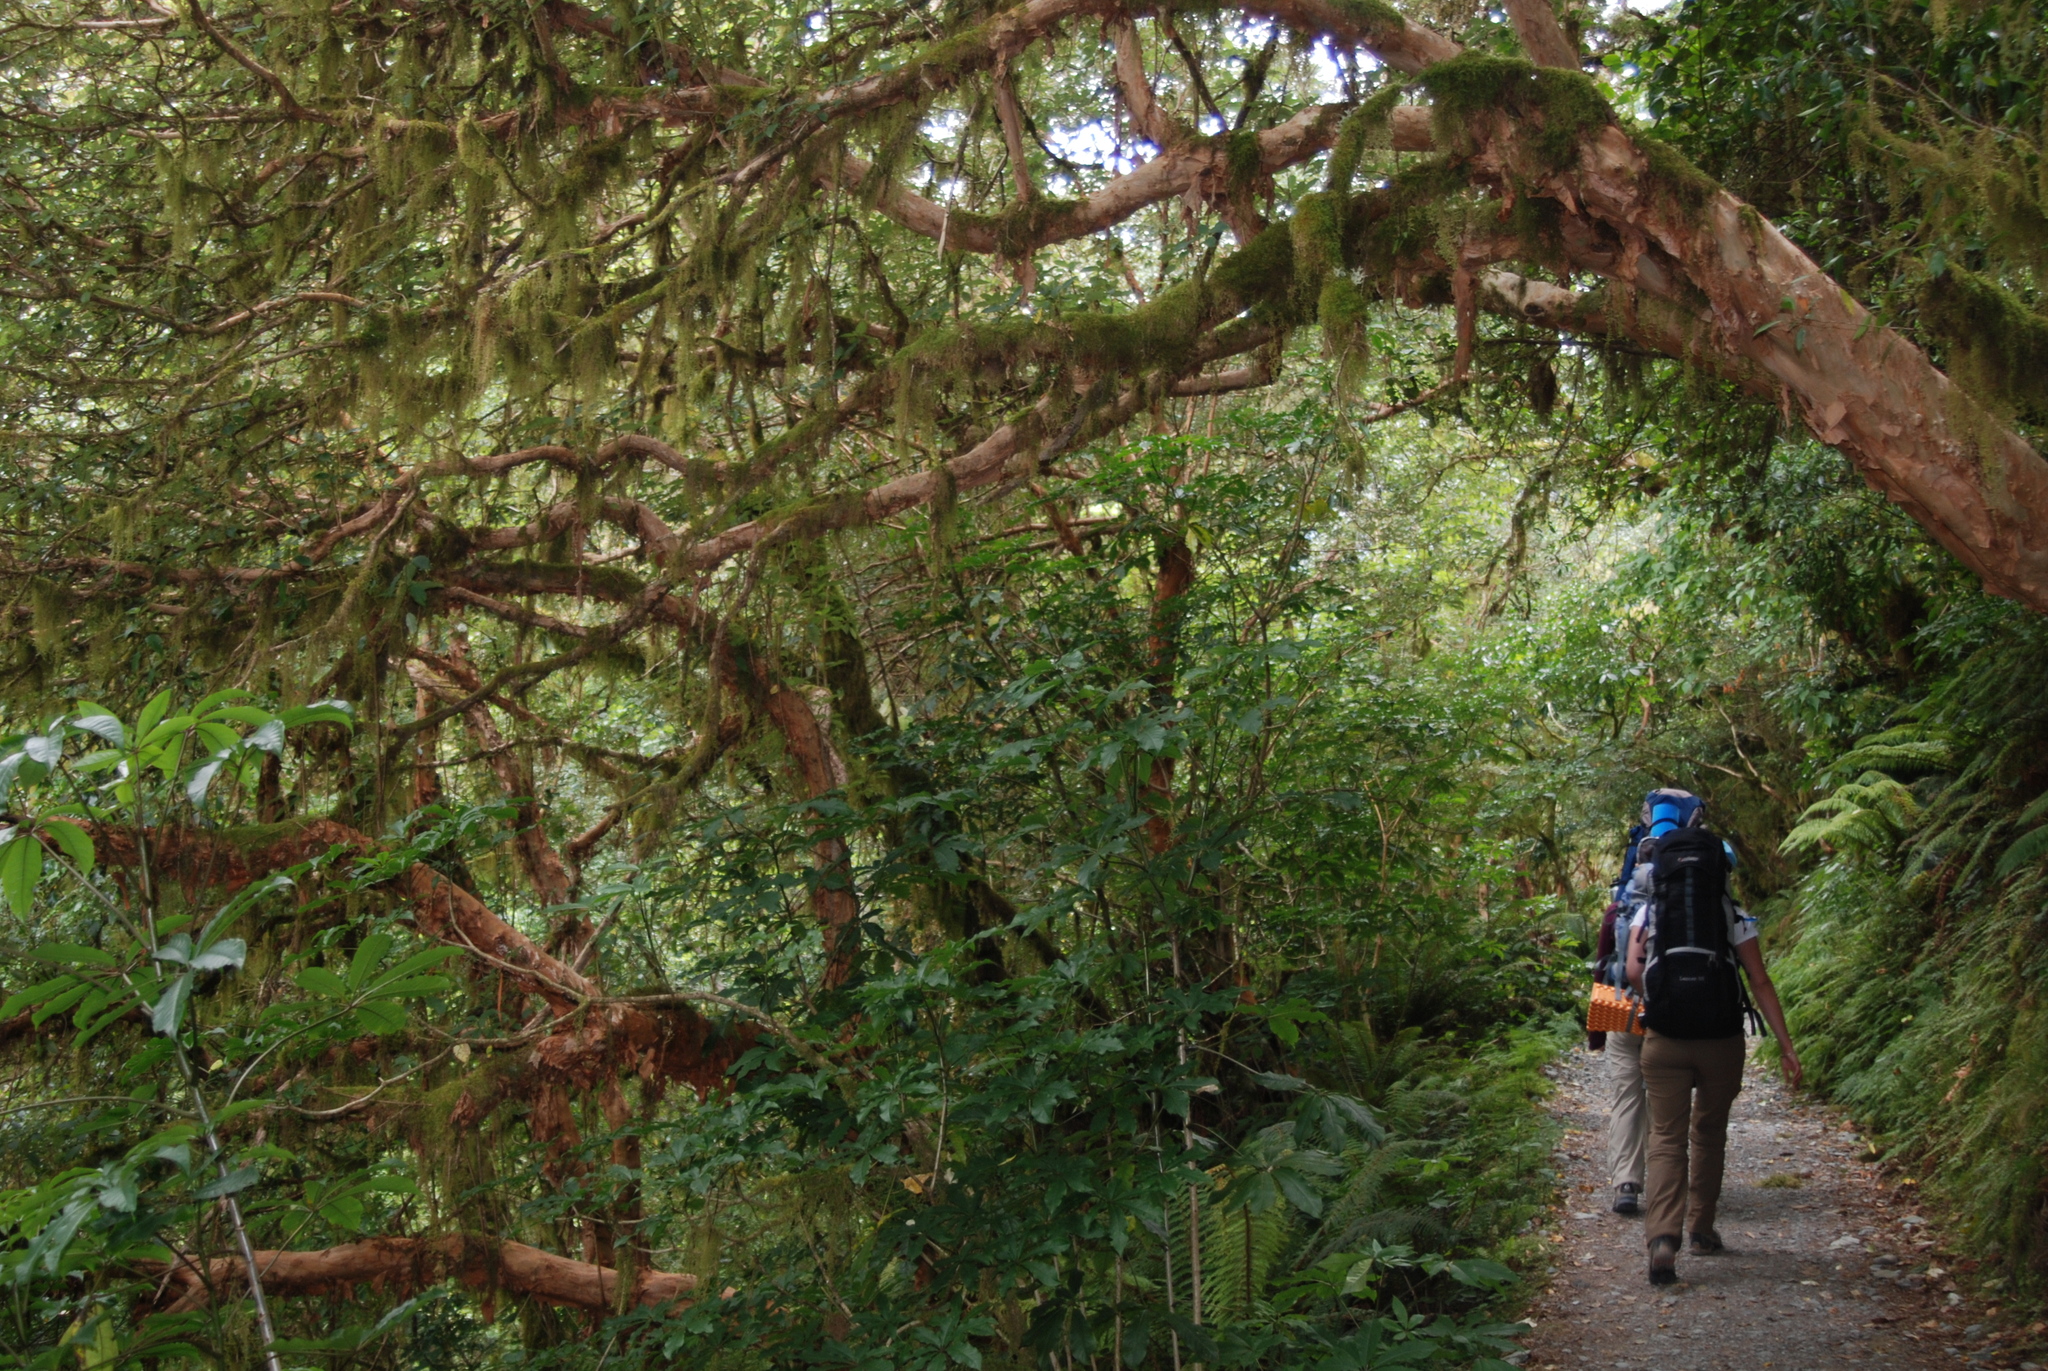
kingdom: Plantae
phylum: Tracheophyta
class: Magnoliopsida
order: Myrtales
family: Onagraceae
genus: Fuchsia
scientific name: Fuchsia excorticata
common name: Tree fuchsia
